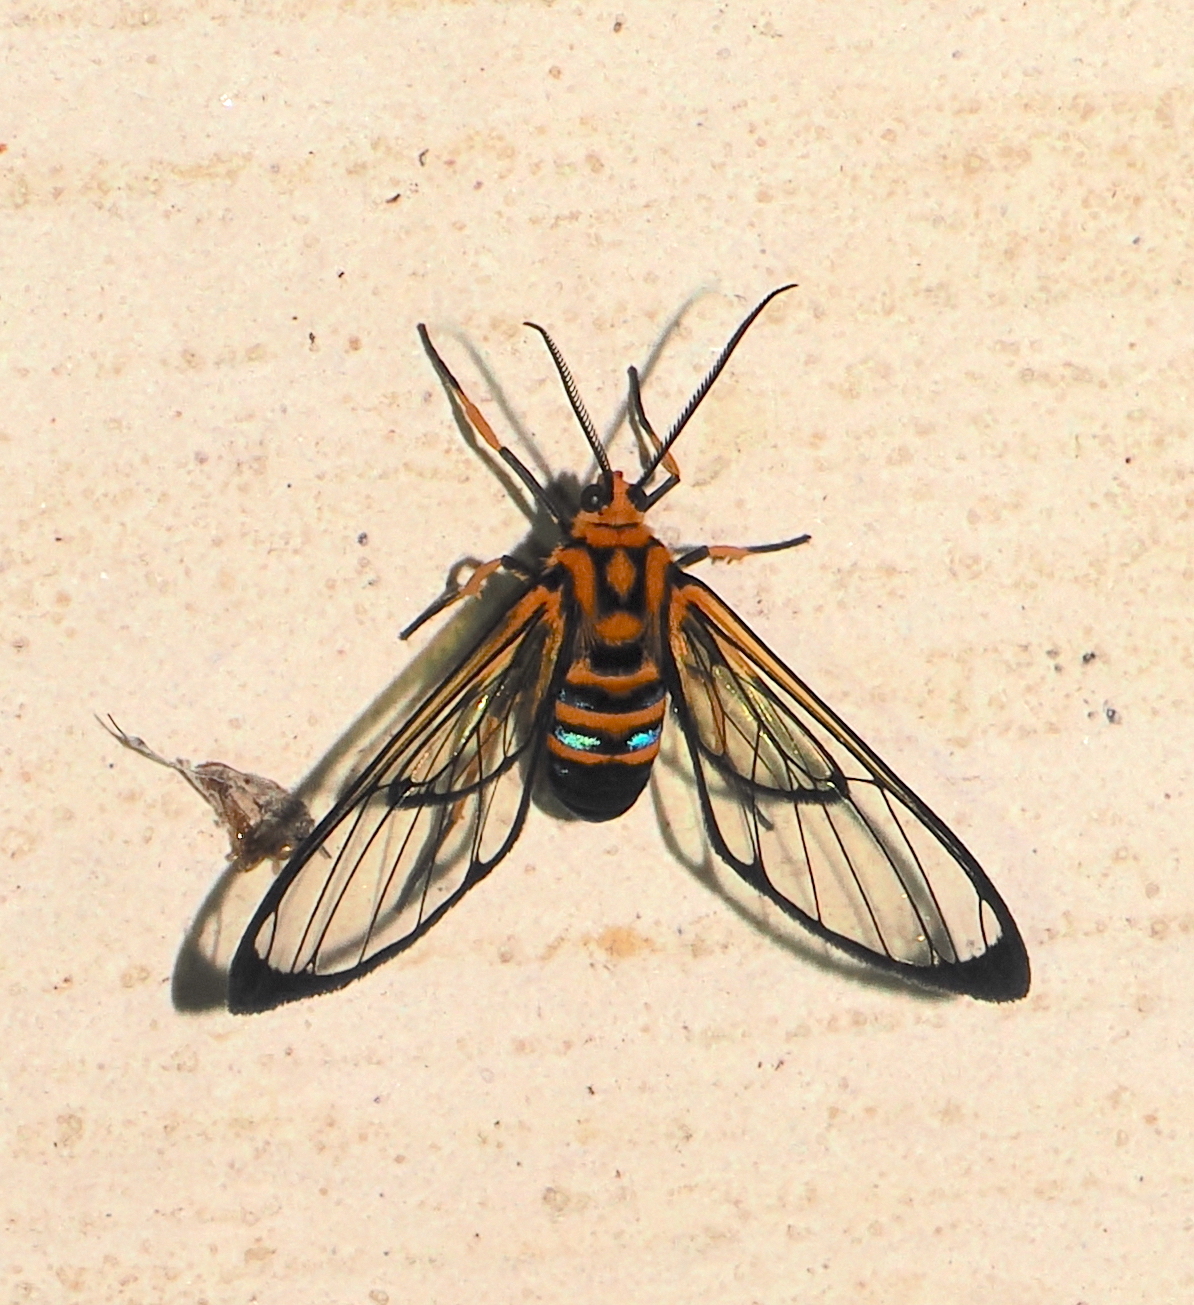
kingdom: Animalia
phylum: Arthropoda
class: Insecta
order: Lepidoptera
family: Erebidae
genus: Mesothen
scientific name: Mesothen nomia
